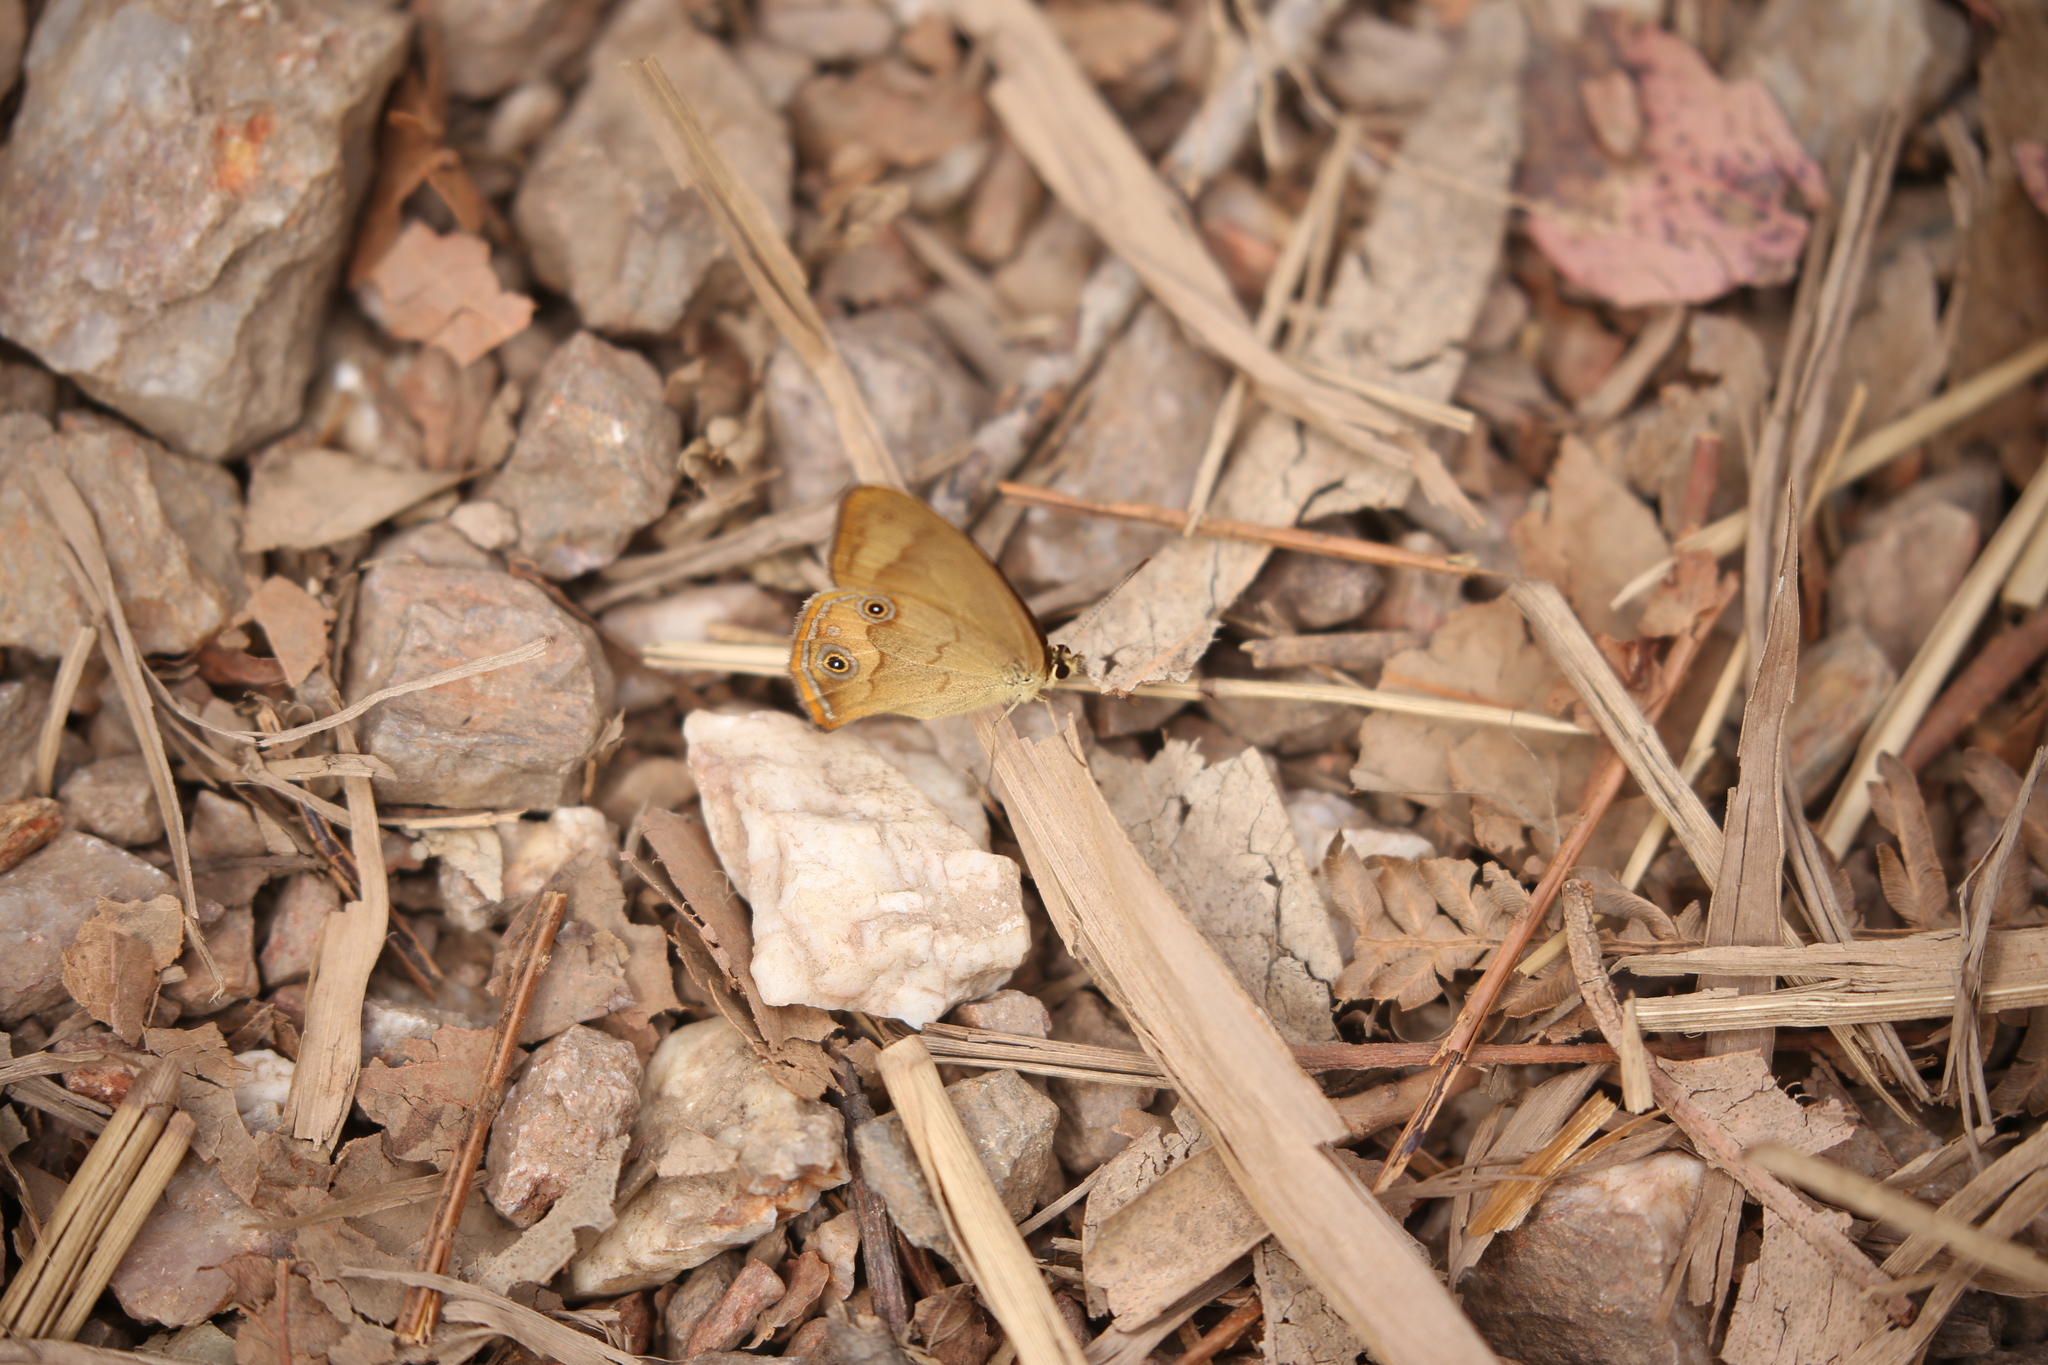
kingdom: Animalia
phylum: Arthropoda
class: Insecta
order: Lepidoptera
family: Nymphalidae
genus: Hypocysta
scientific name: Hypocysta metirius
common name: Brown ringlet
